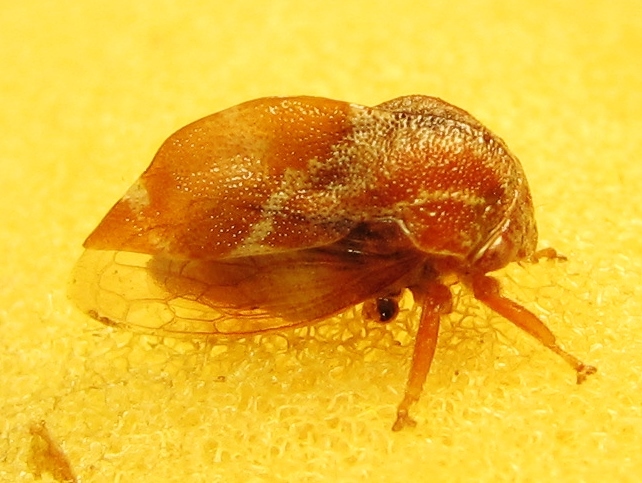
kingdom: Animalia
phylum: Arthropoda
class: Insecta
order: Hemiptera
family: Membracidae
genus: Xantholobus
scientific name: Xantholobus mutica
